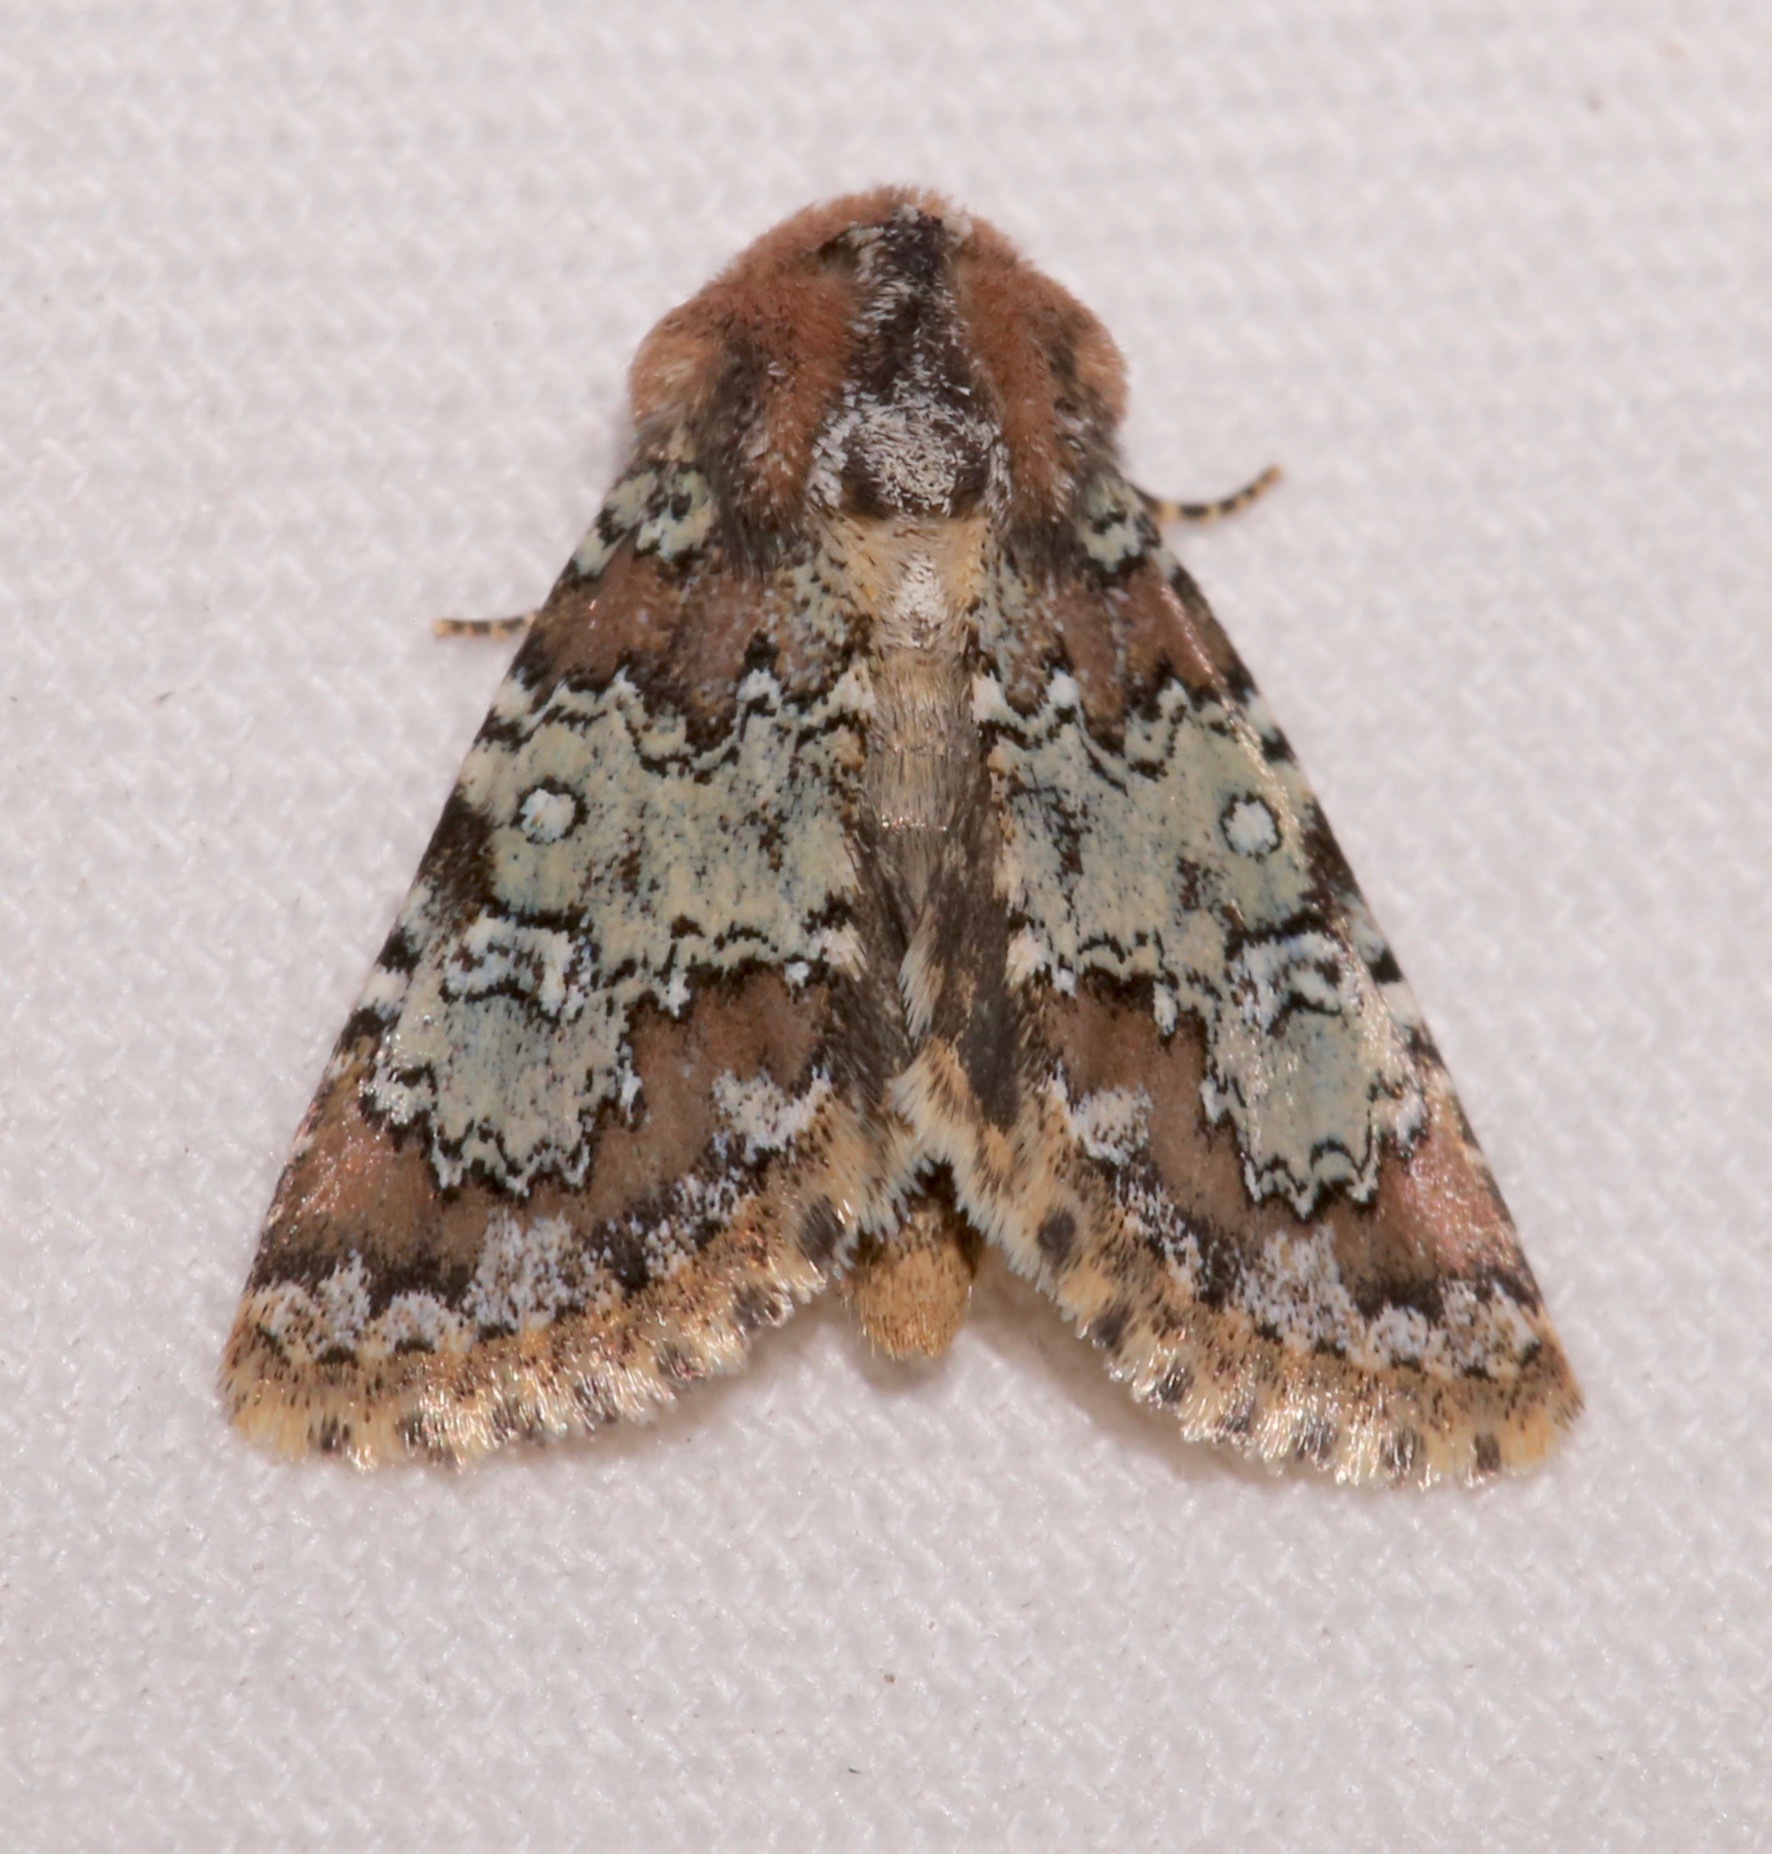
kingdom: Animalia
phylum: Arthropoda
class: Insecta
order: Lepidoptera
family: Noctuidae
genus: Hemibryomima
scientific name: Hemibryomima chryselectra
